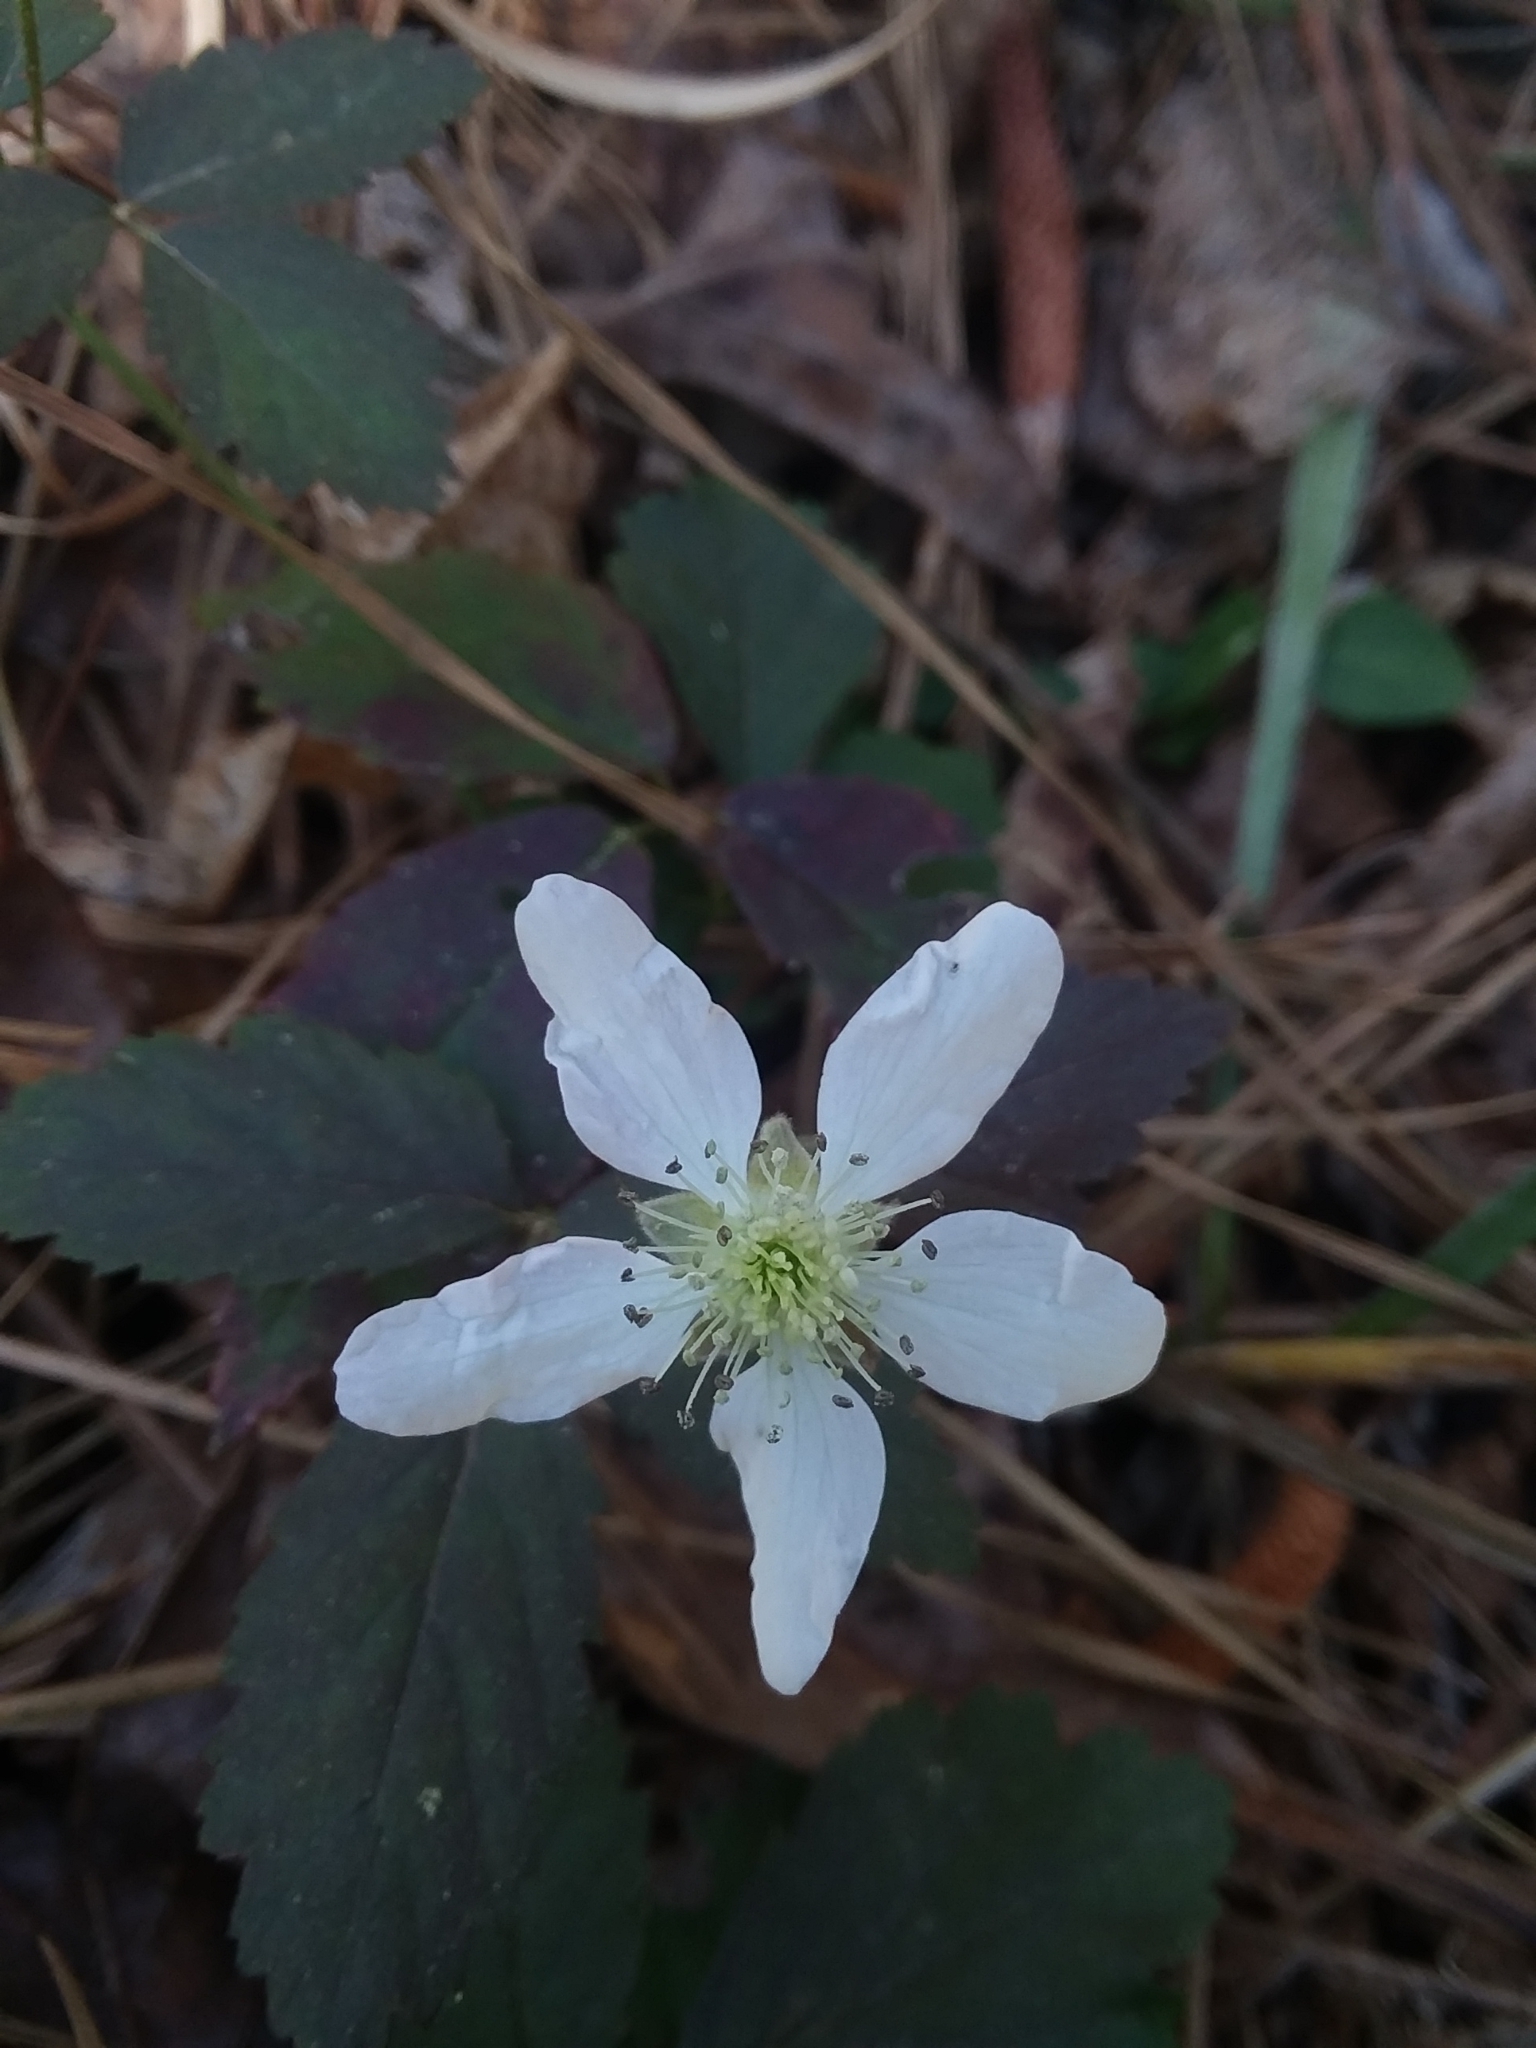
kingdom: Plantae
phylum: Tracheophyta
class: Magnoliopsida
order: Rosales
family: Rosaceae
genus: Rubus
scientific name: Rubus flagellaris
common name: American dewberry
